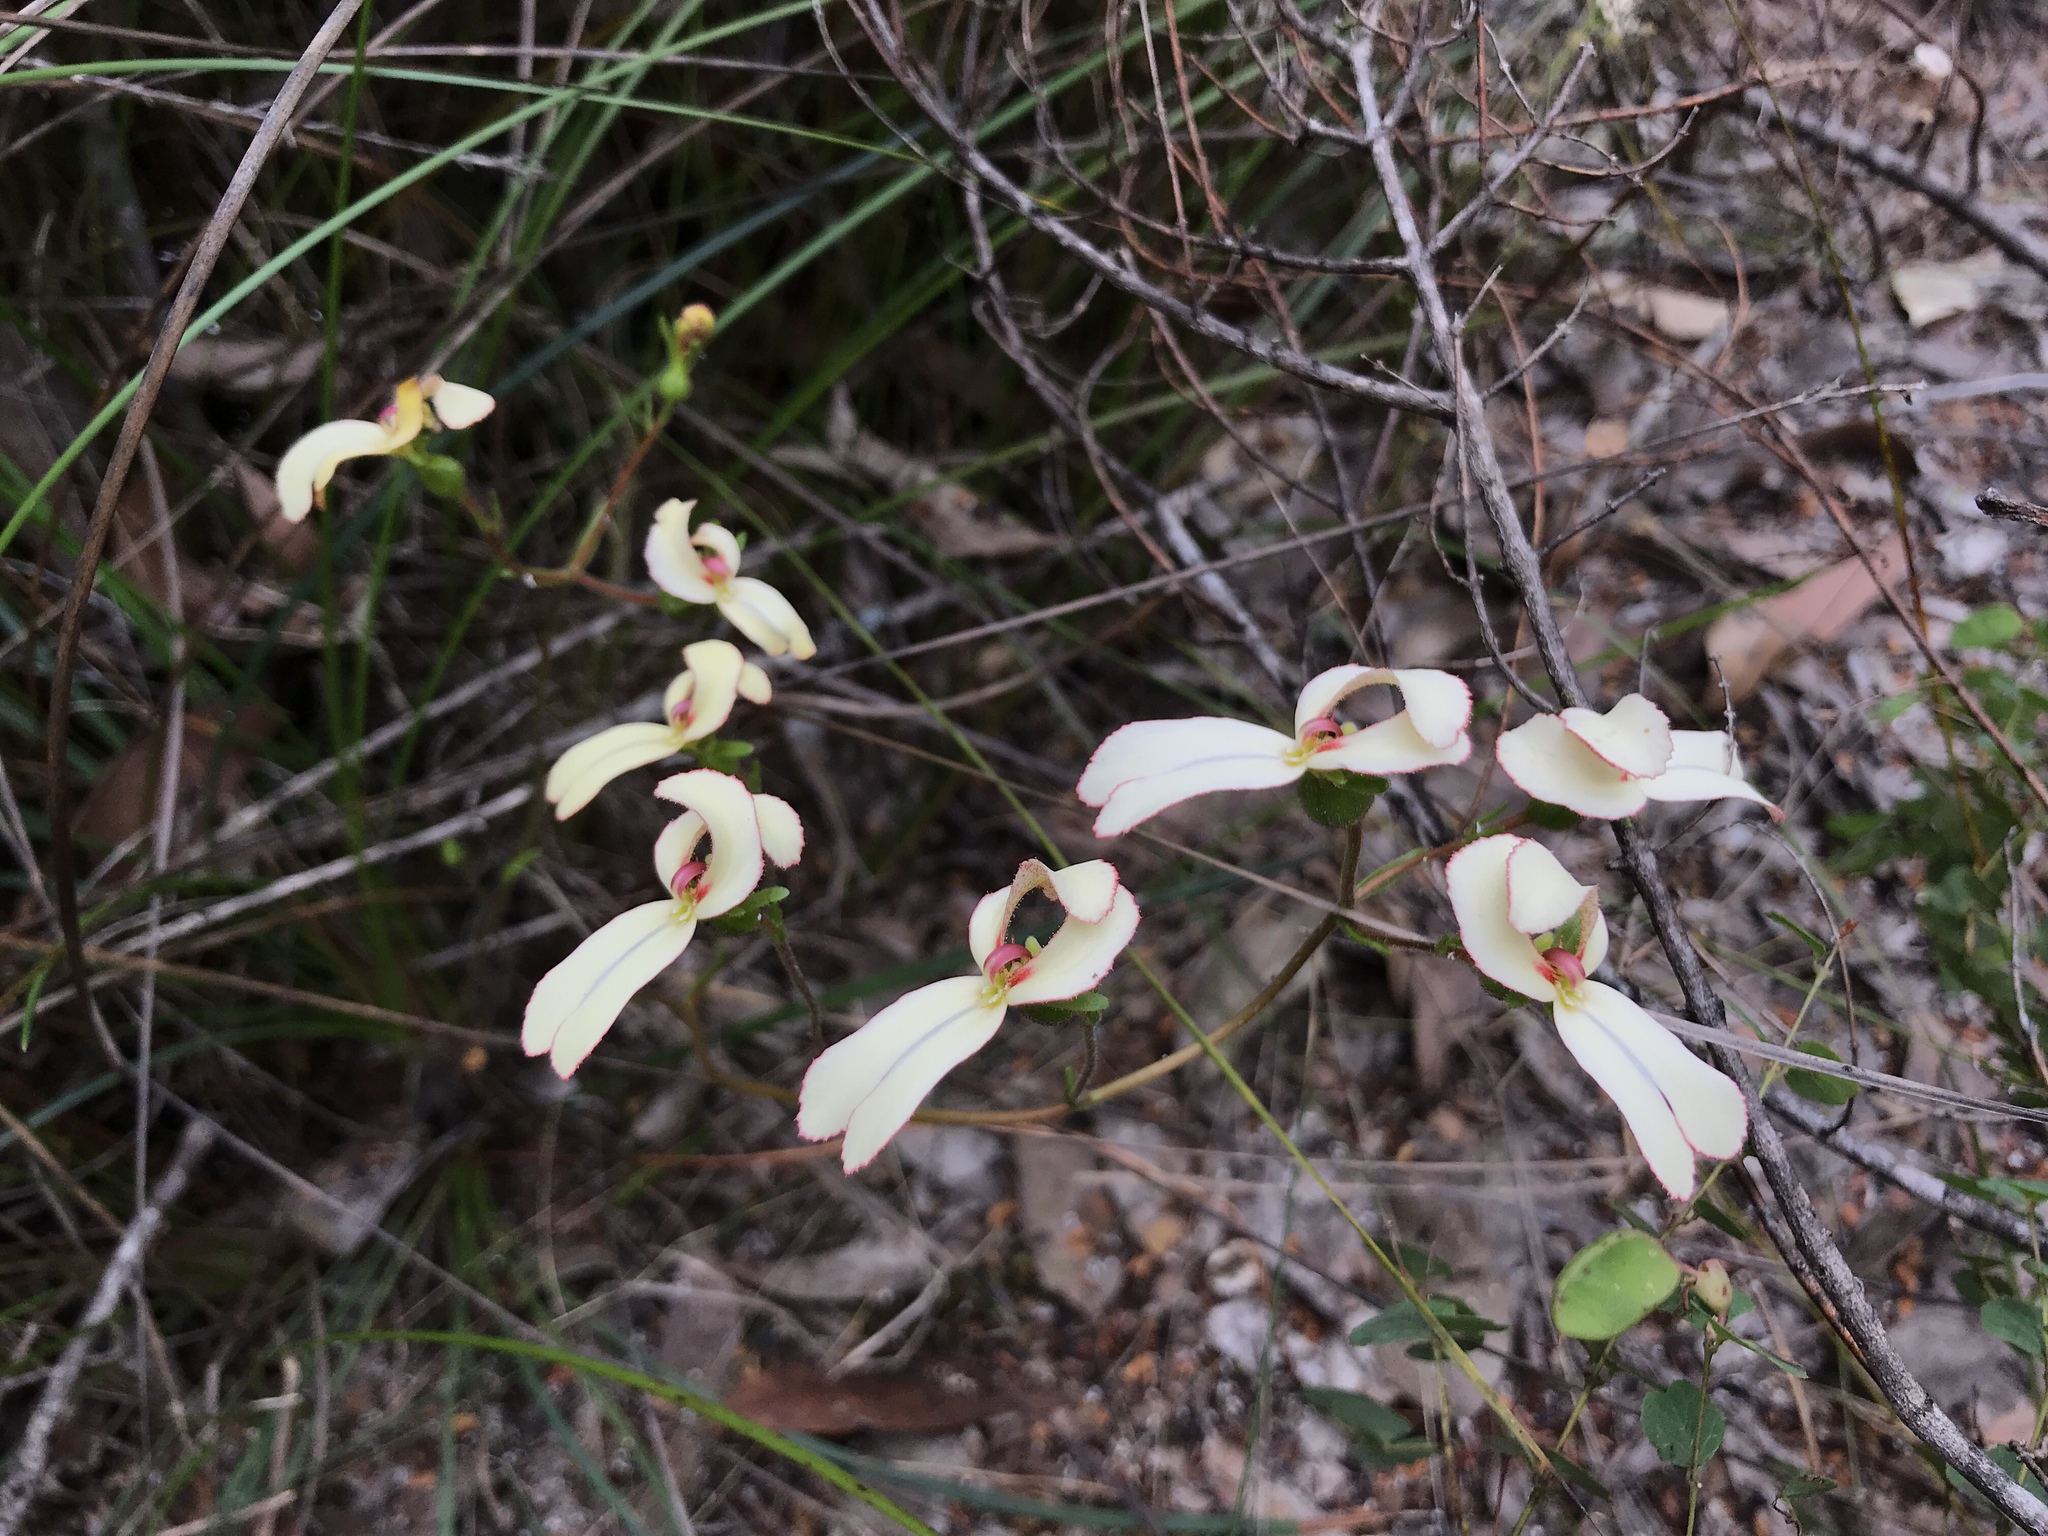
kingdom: Plantae
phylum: Tracheophyta
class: Magnoliopsida
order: Asterales
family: Stylidiaceae
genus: Stylidium
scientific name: Stylidium schoenoides
